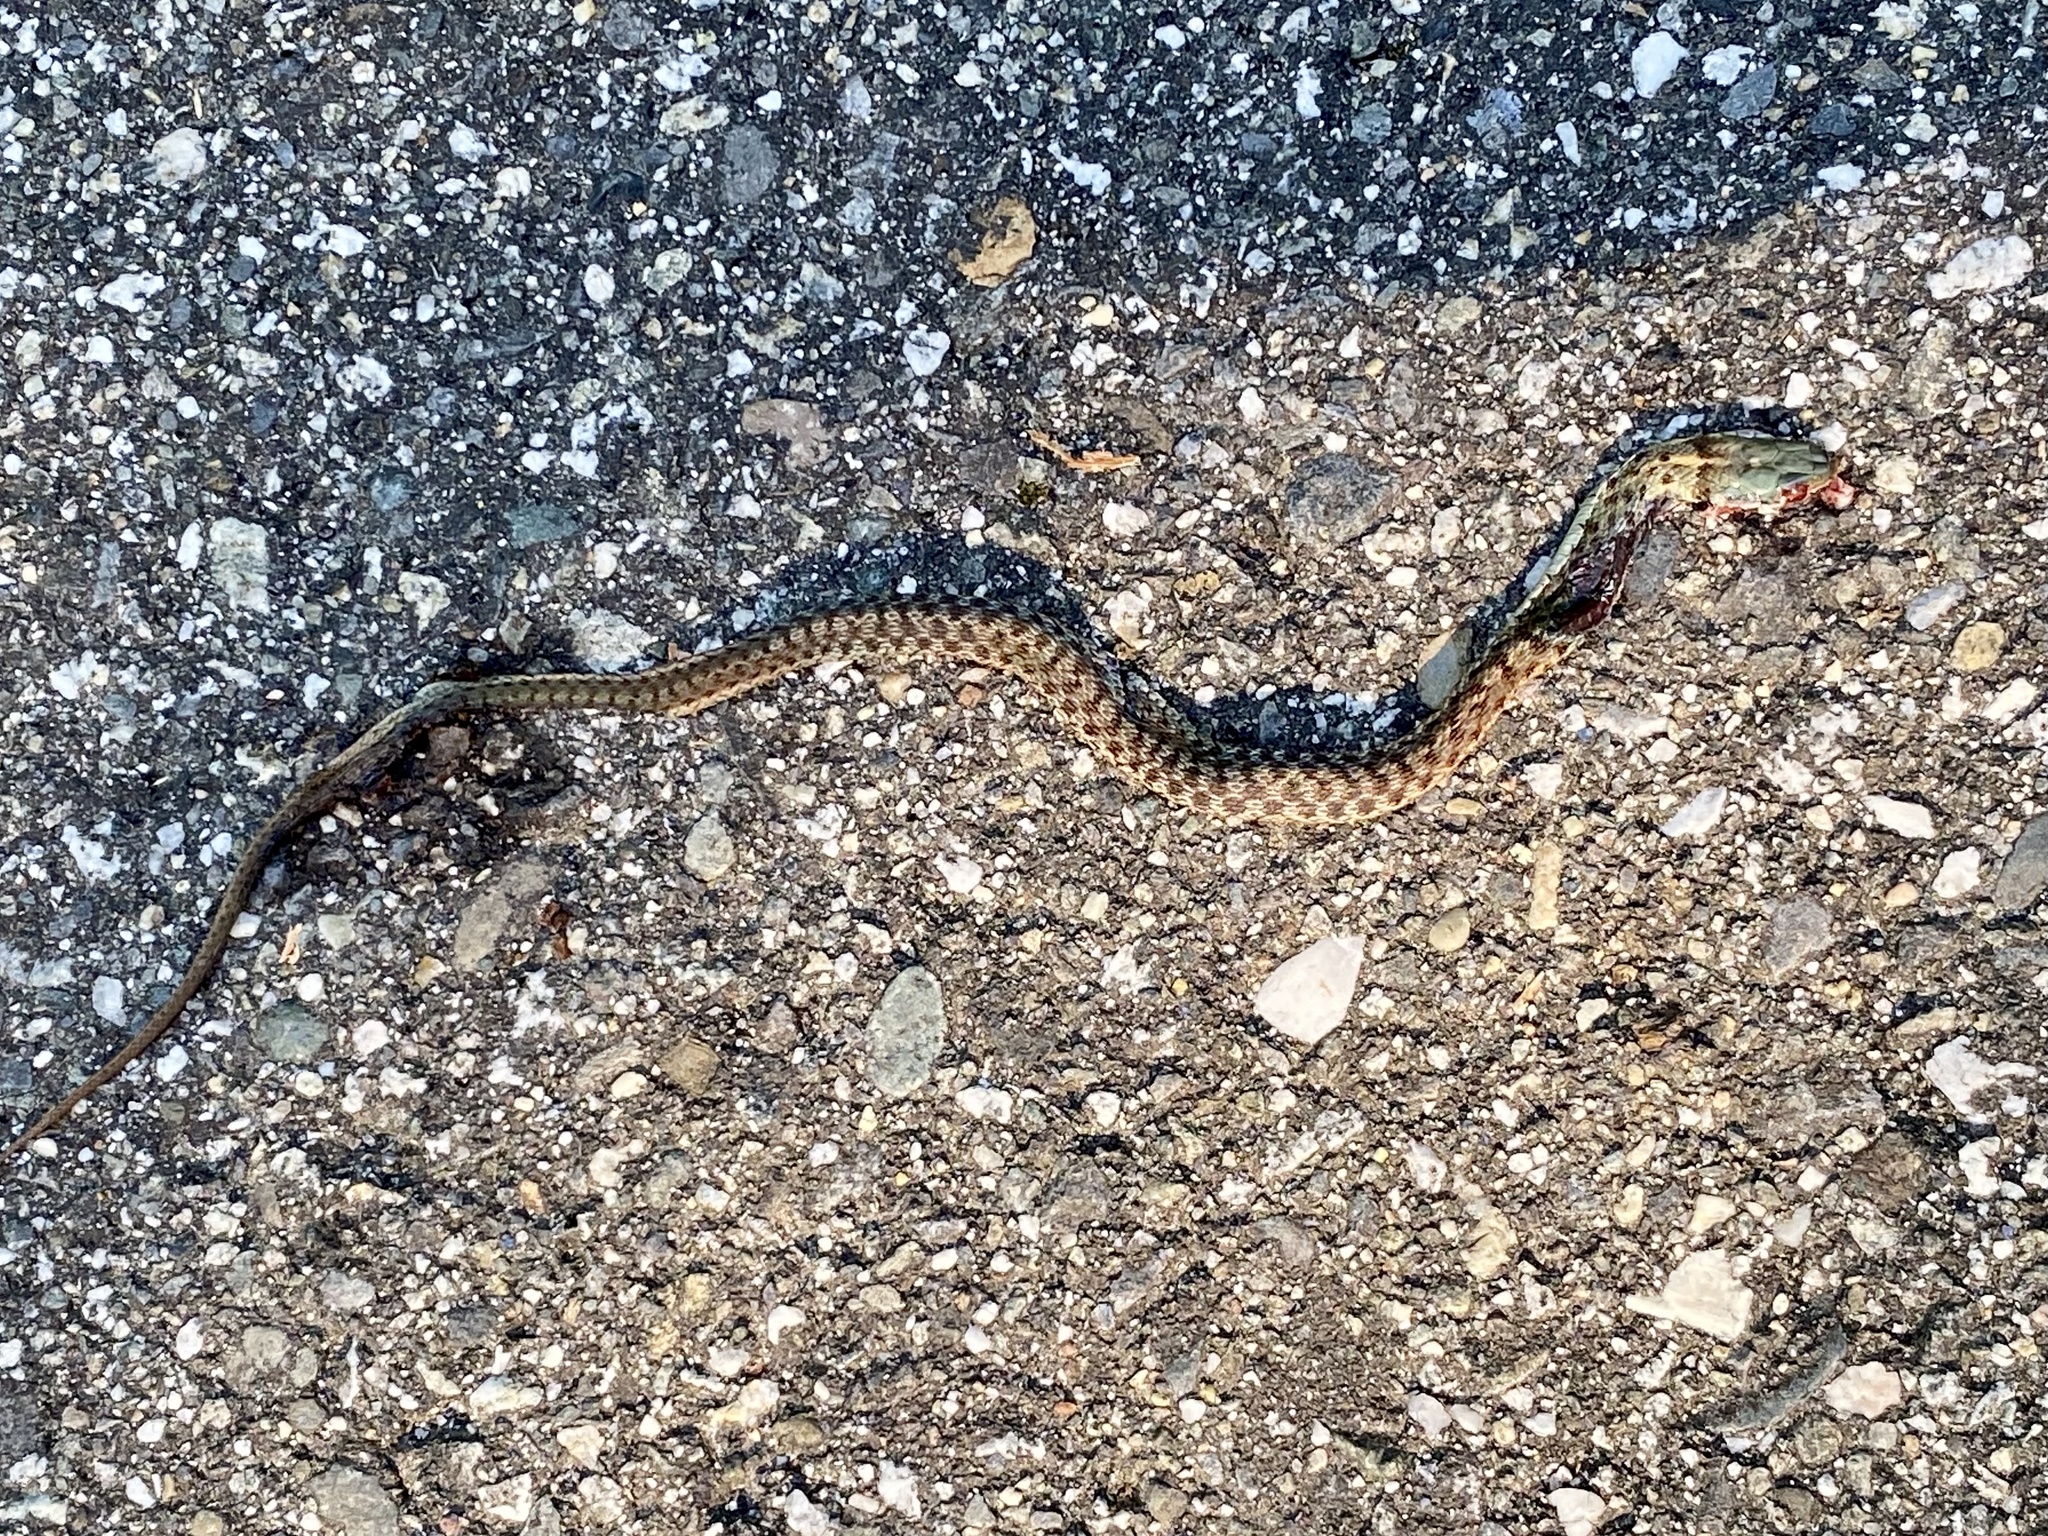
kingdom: Animalia
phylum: Chordata
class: Squamata
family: Colubridae
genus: Thamnophis
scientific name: Thamnophis sirtalis
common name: Common garter snake
